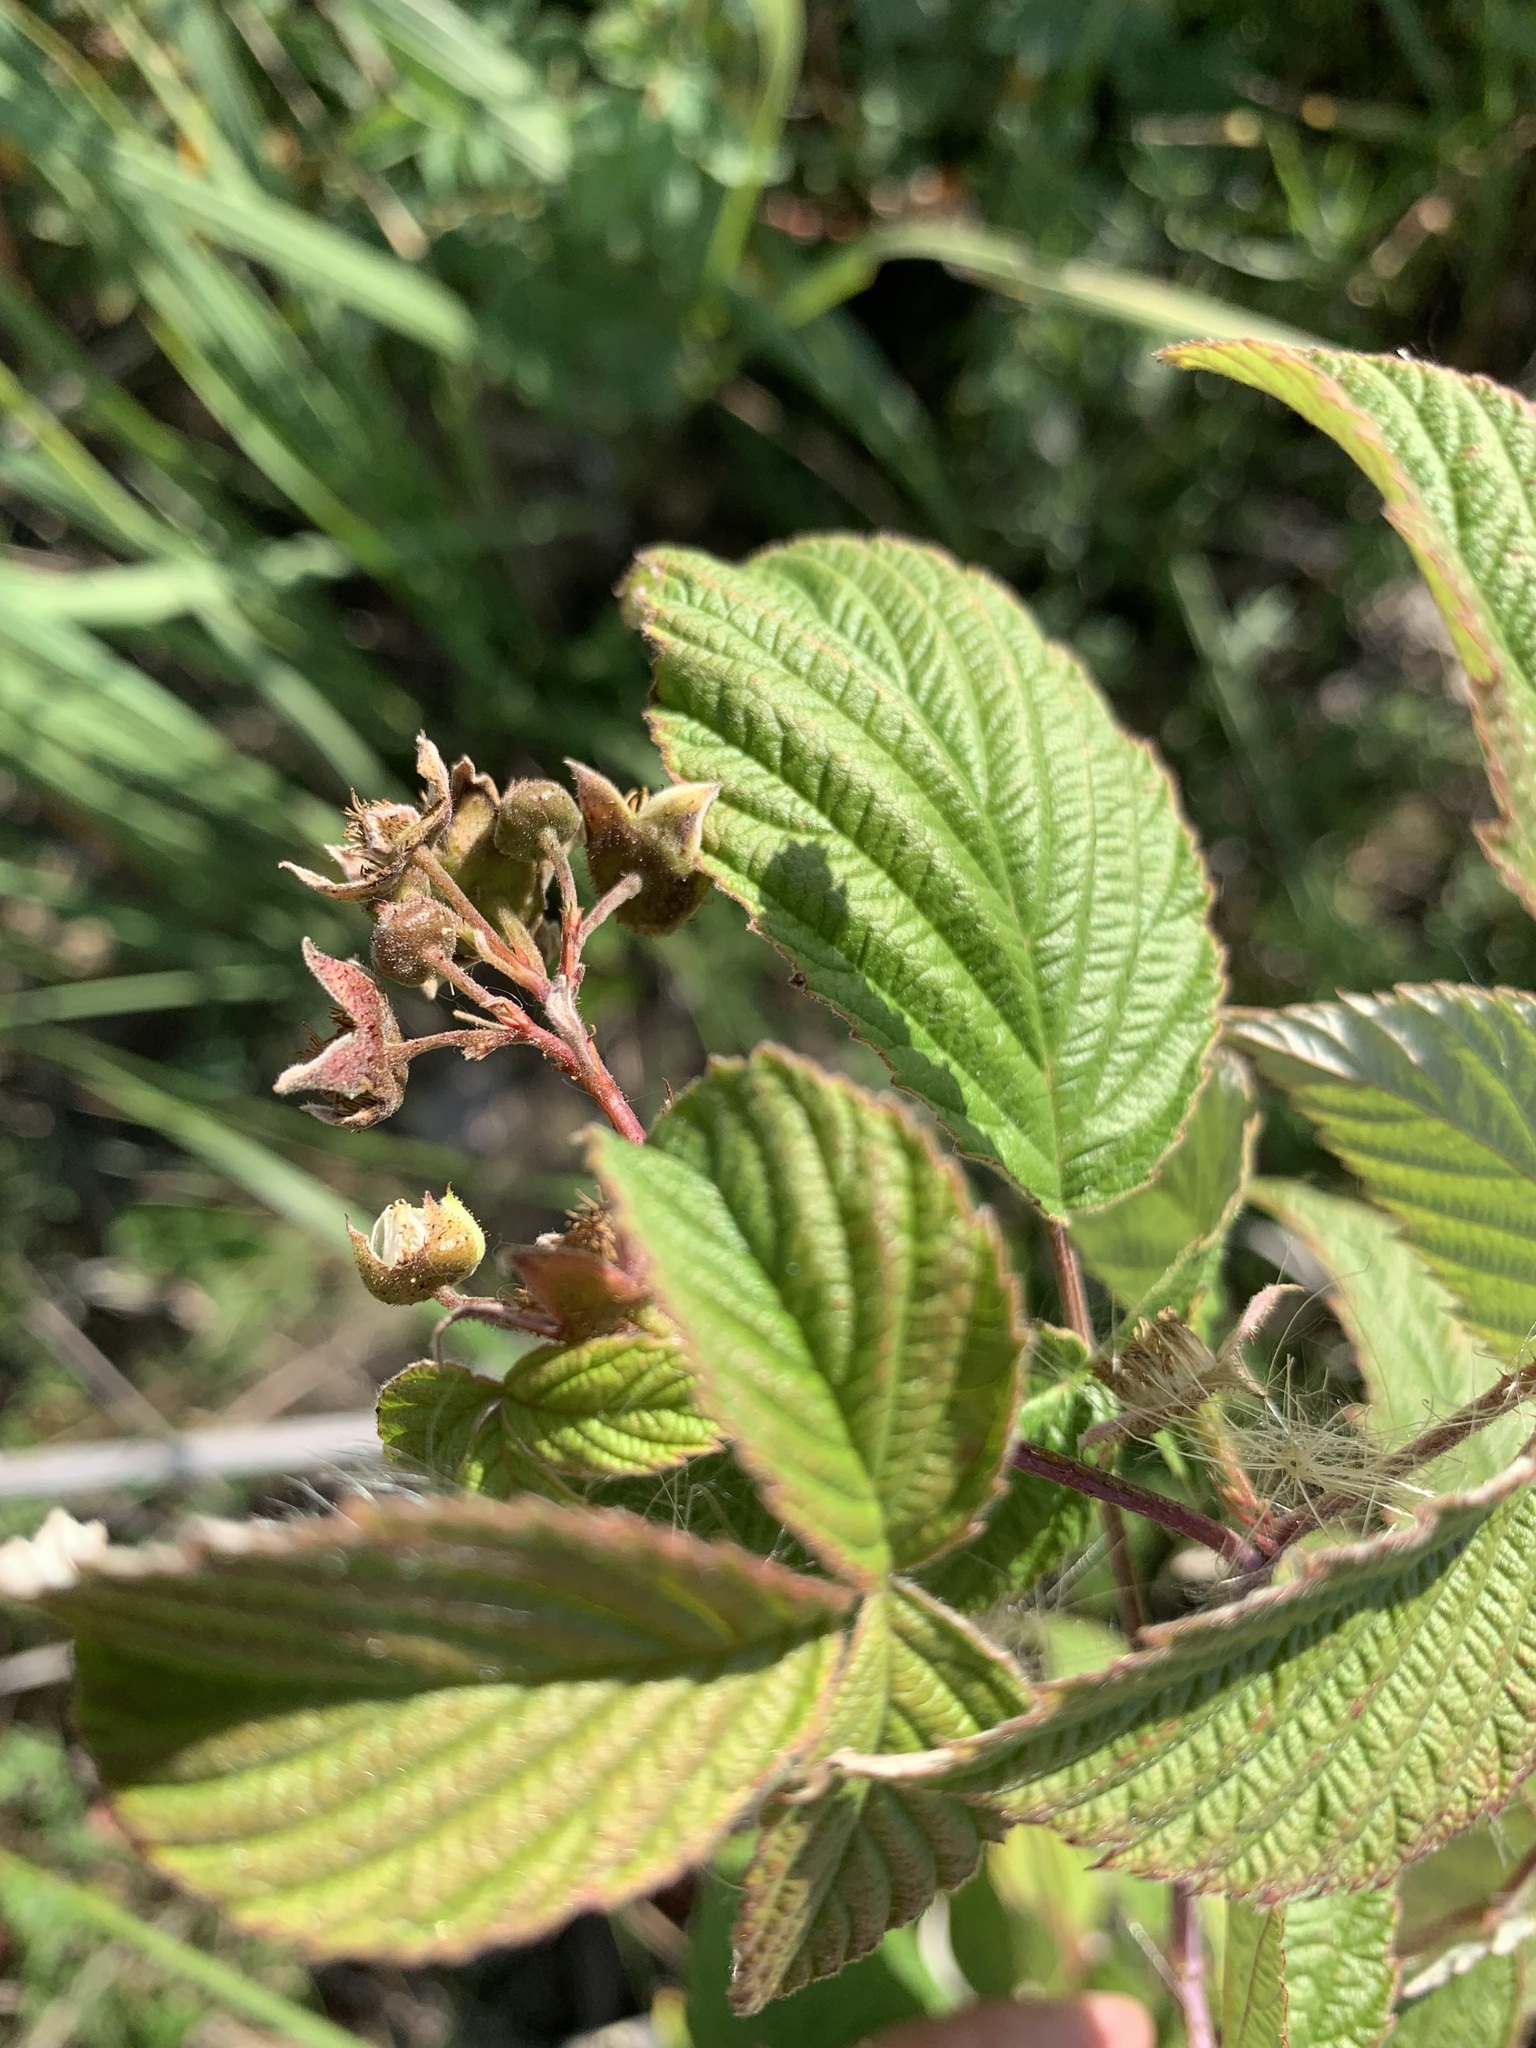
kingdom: Plantae
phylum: Tracheophyta
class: Magnoliopsida
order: Rosales
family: Rosaceae
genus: Rubus
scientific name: Rubus sachalinensis
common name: Red raspberry
